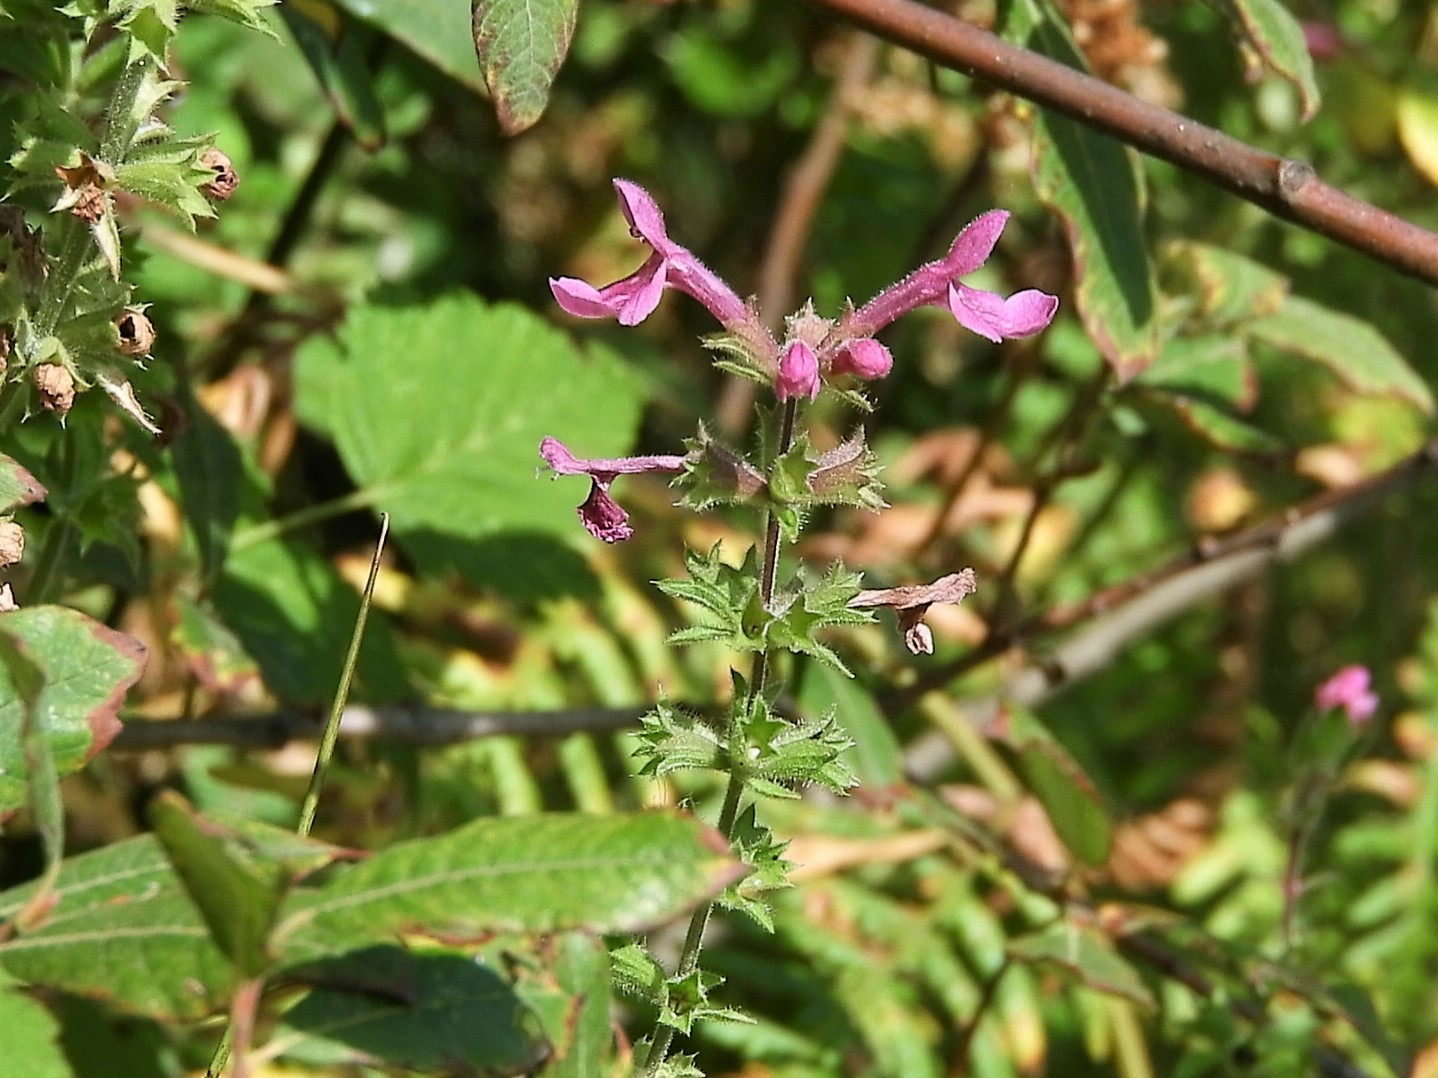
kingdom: Plantae
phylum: Tracheophyta
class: Magnoliopsida
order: Lamiales
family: Lamiaceae
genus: Stachys
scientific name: Stachys chamissonis
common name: Coastal hedge-nettle
